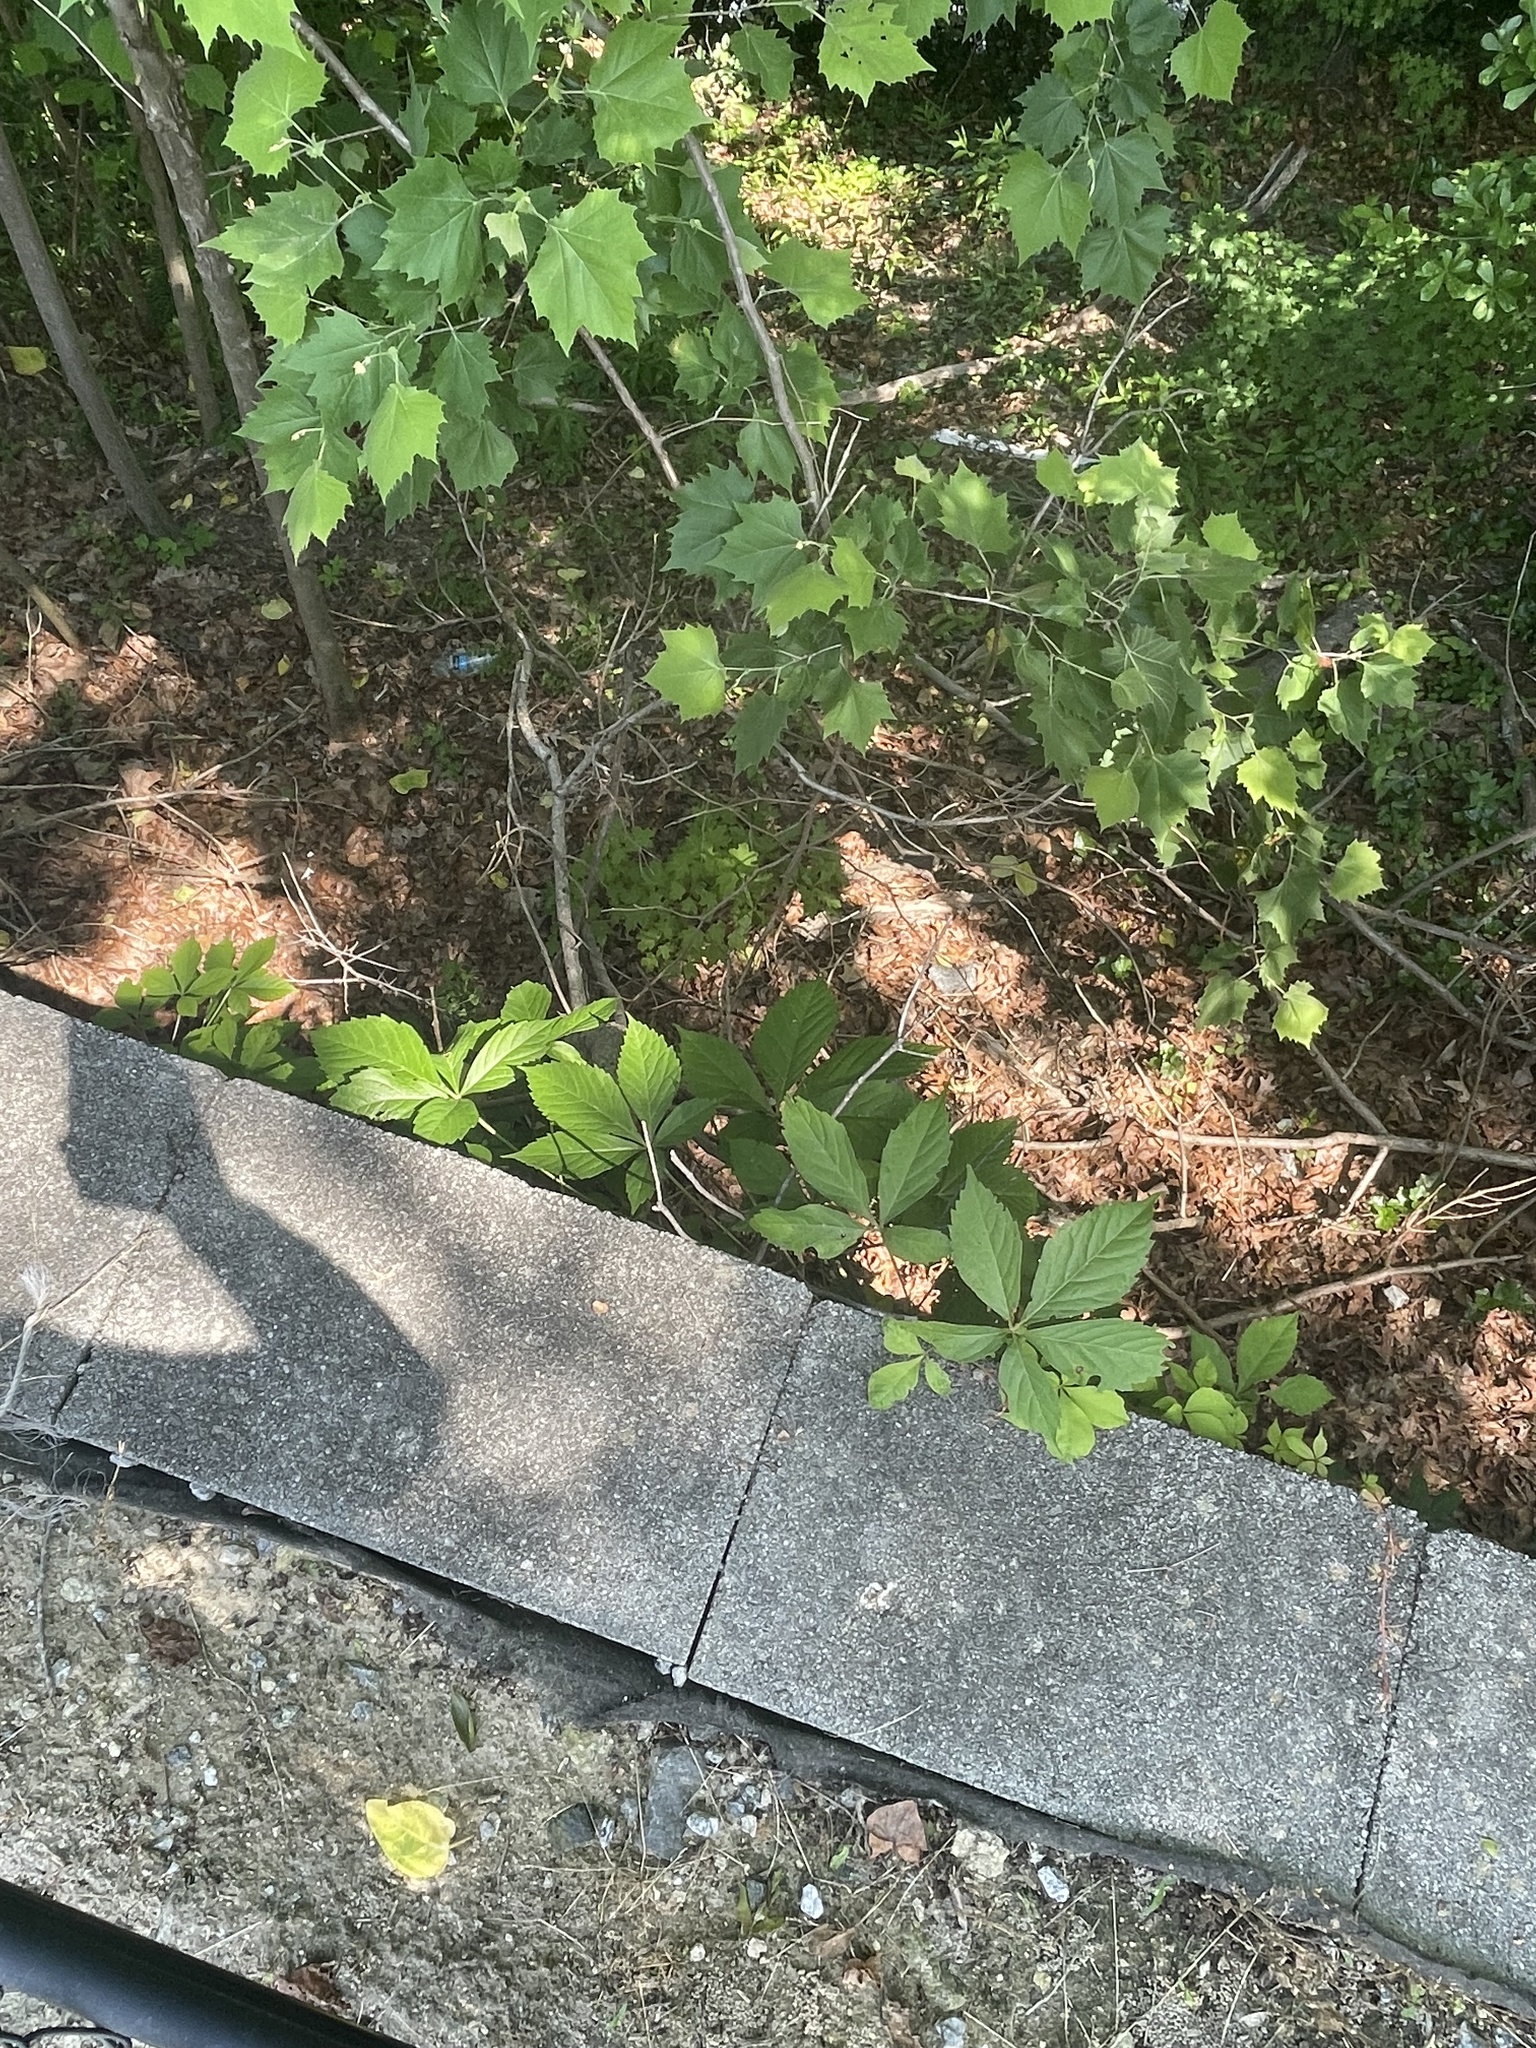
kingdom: Plantae
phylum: Tracheophyta
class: Magnoliopsida
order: Vitales
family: Vitaceae
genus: Parthenocissus
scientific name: Parthenocissus quinquefolia
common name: Virginia-creeper
